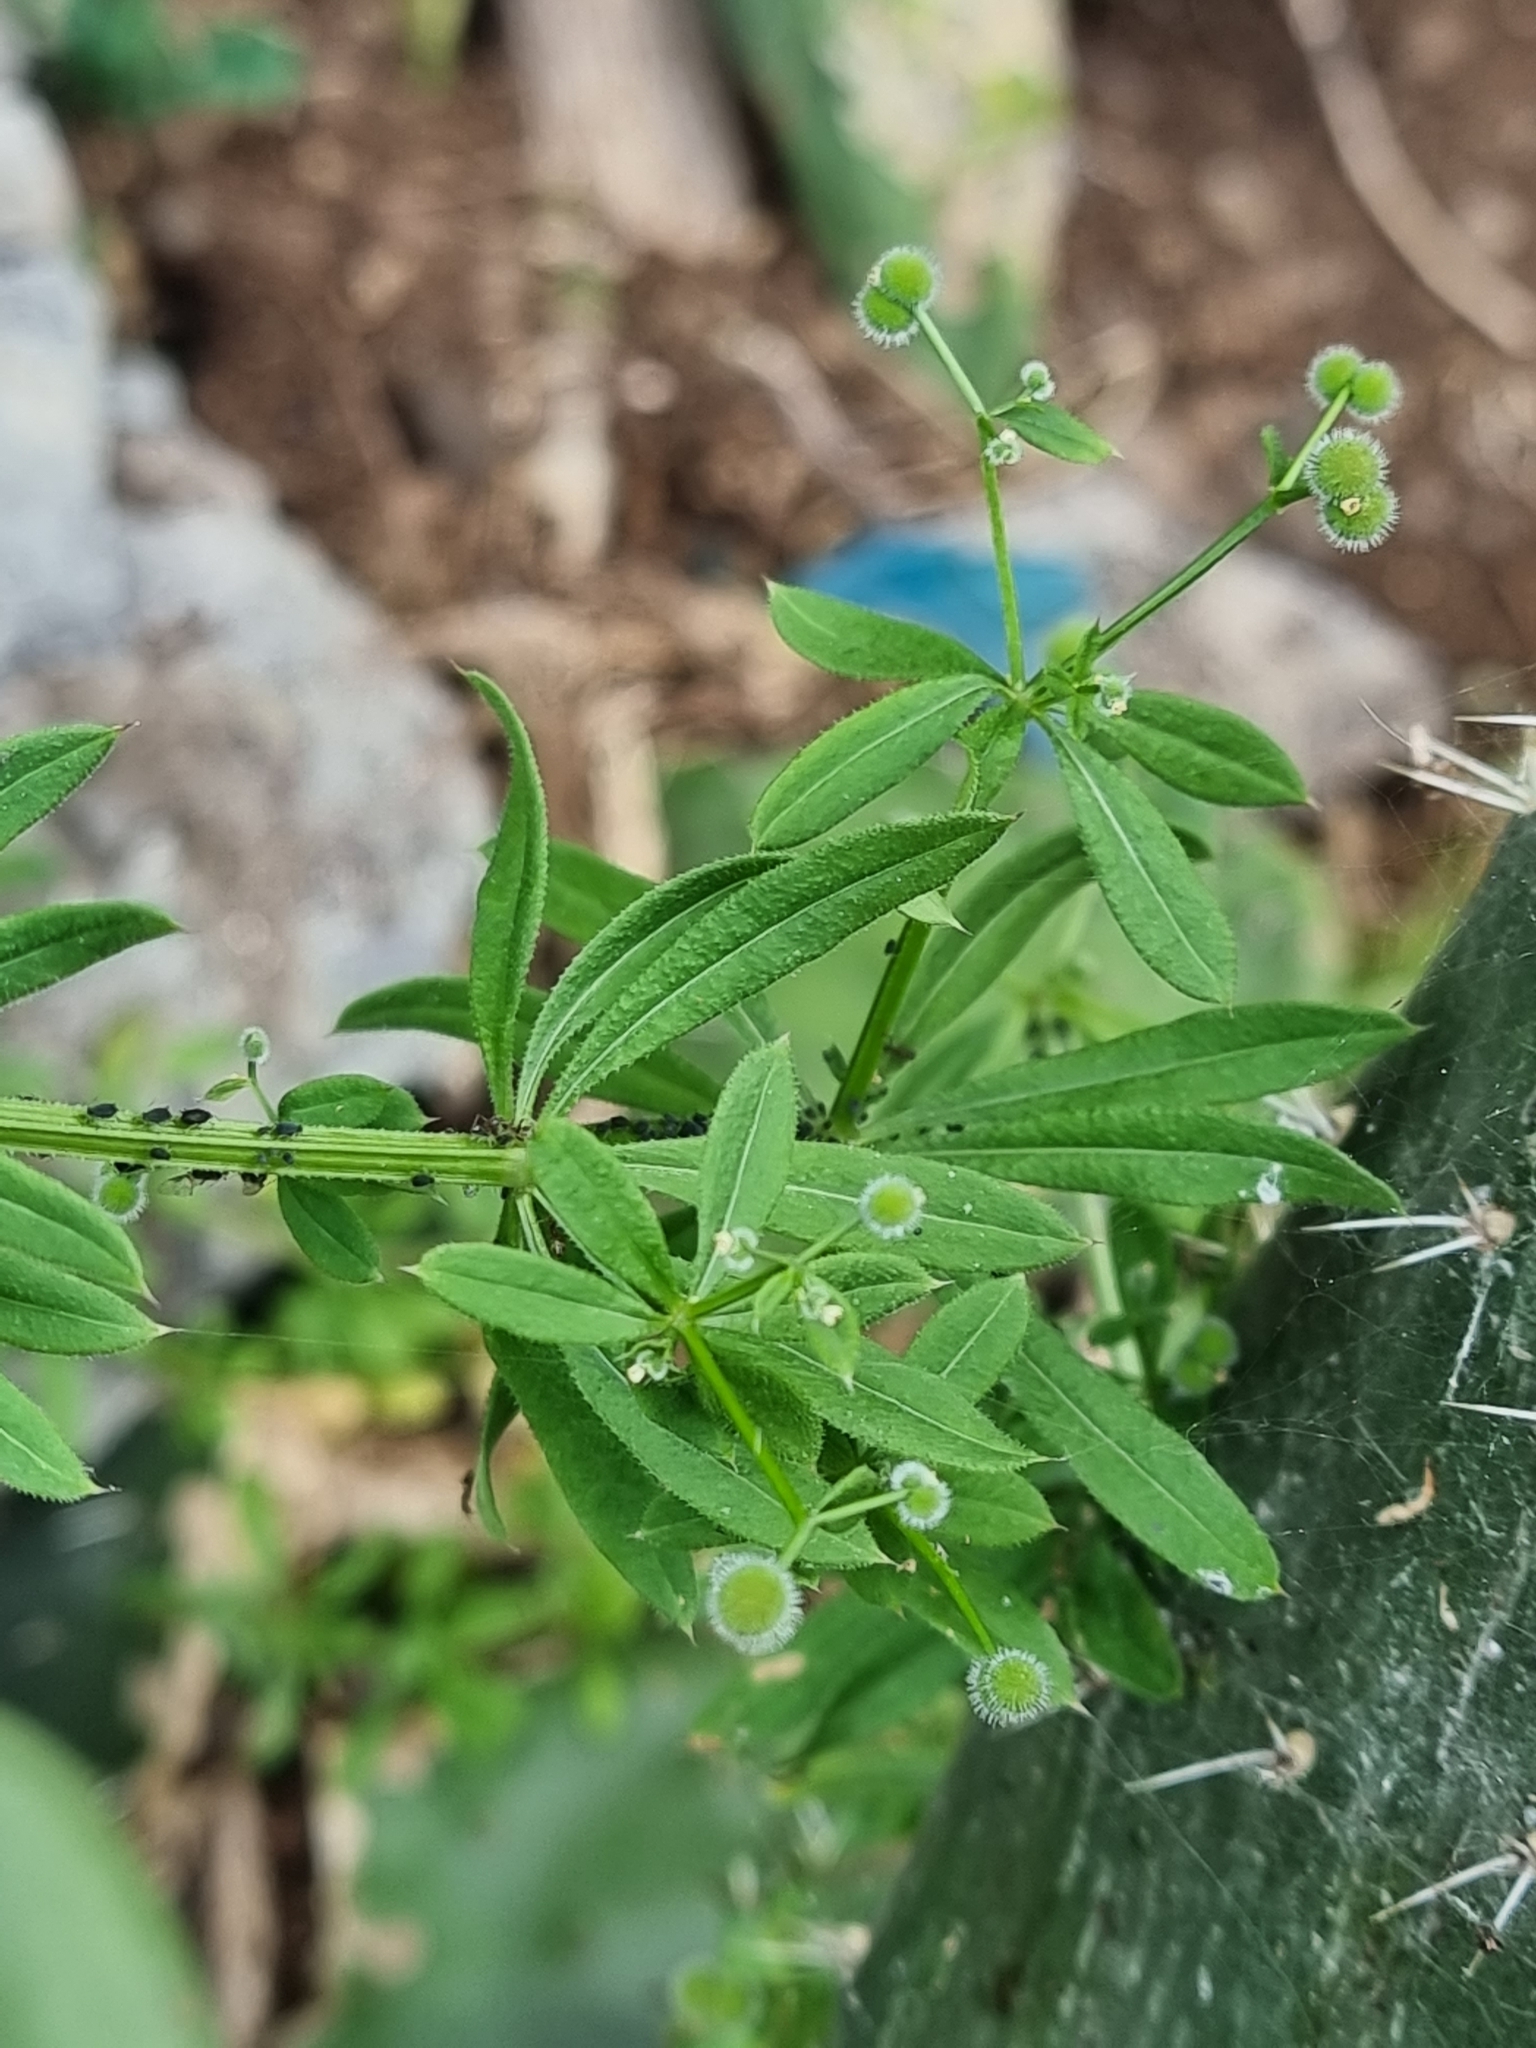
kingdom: Plantae
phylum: Tracheophyta
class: Magnoliopsida
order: Gentianales
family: Rubiaceae
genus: Galium
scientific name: Galium aparine
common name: Cleavers
